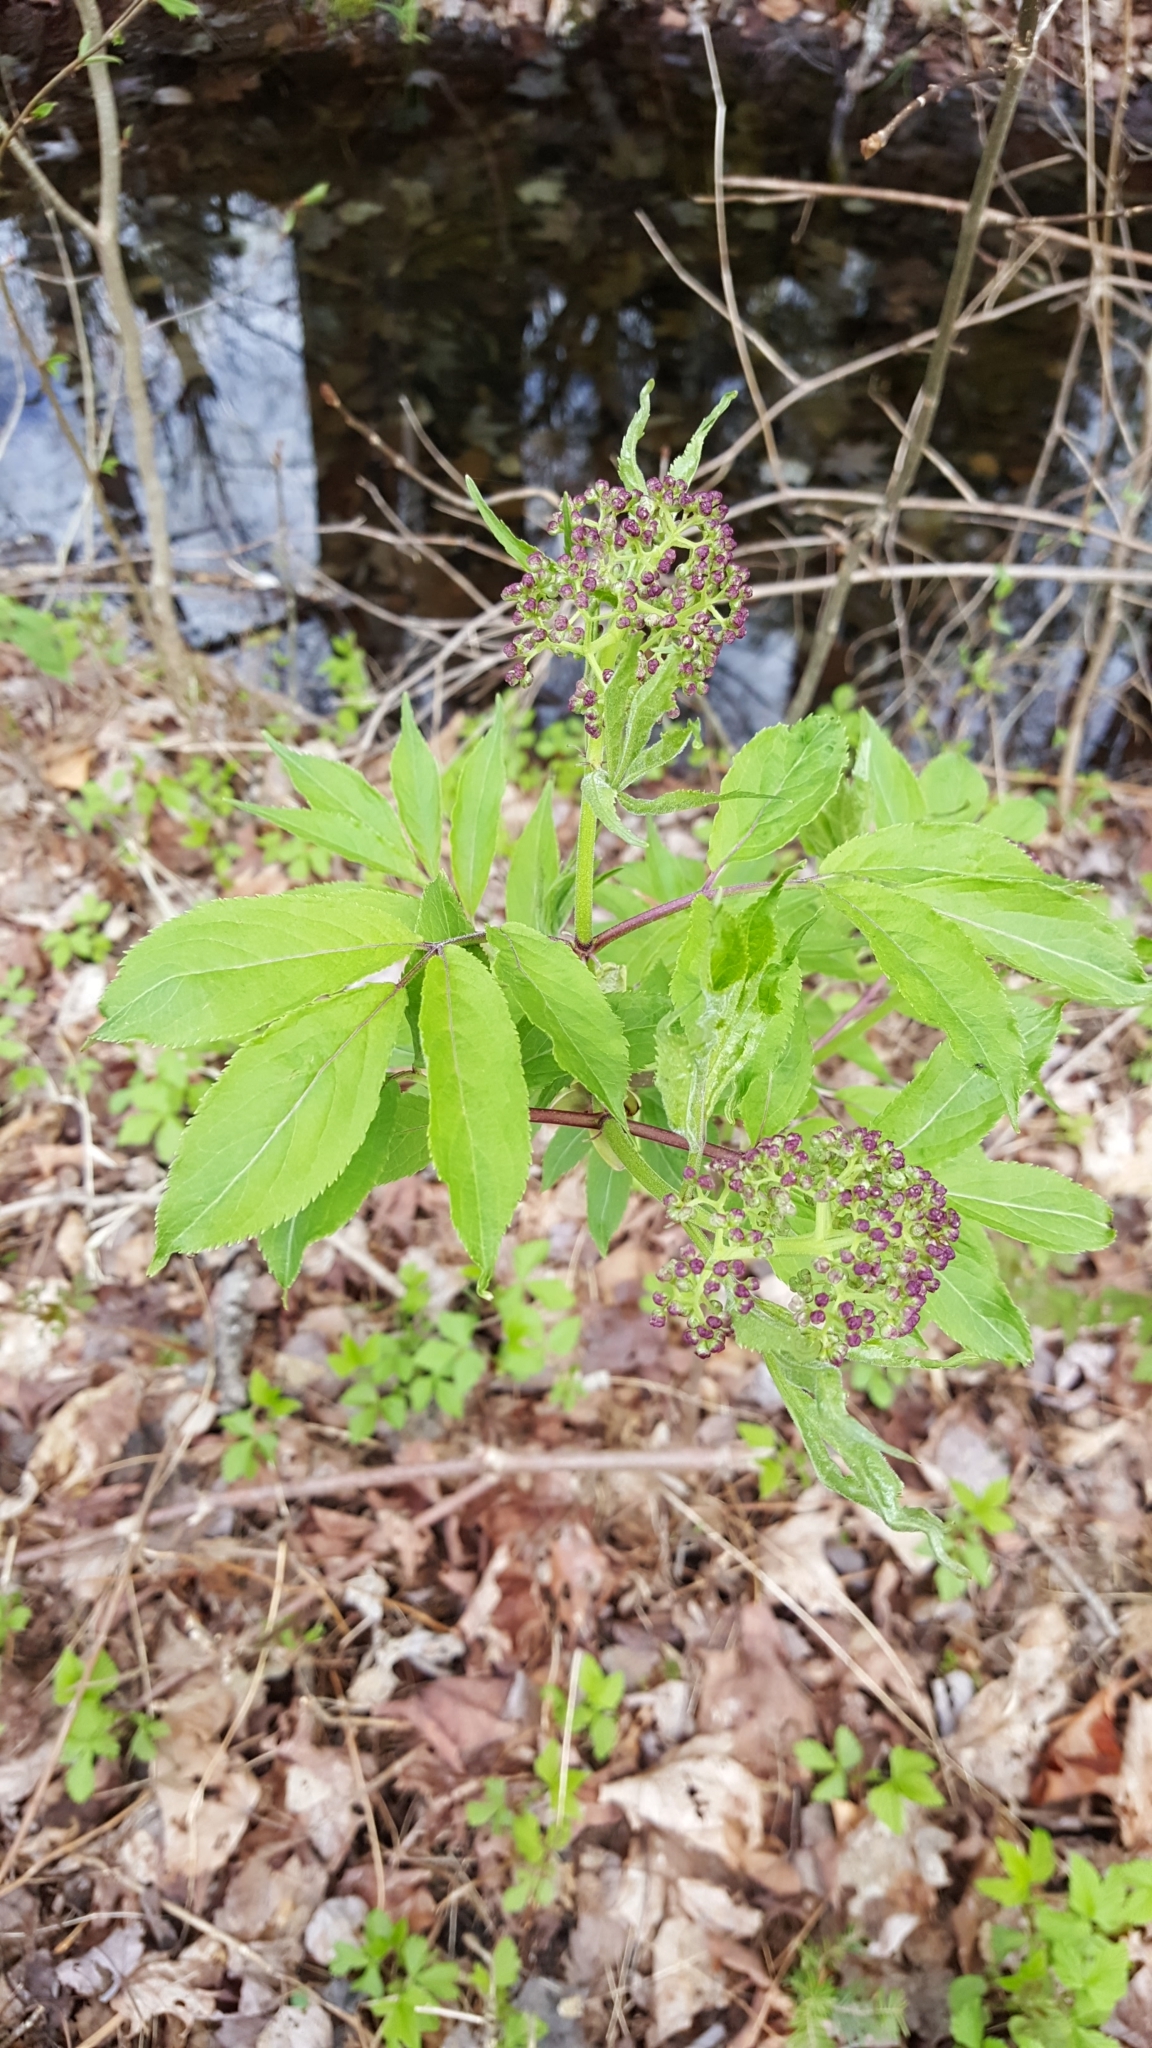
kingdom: Plantae
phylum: Tracheophyta
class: Magnoliopsida
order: Dipsacales
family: Viburnaceae
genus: Sambucus
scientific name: Sambucus racemosa
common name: Red-berried elder
